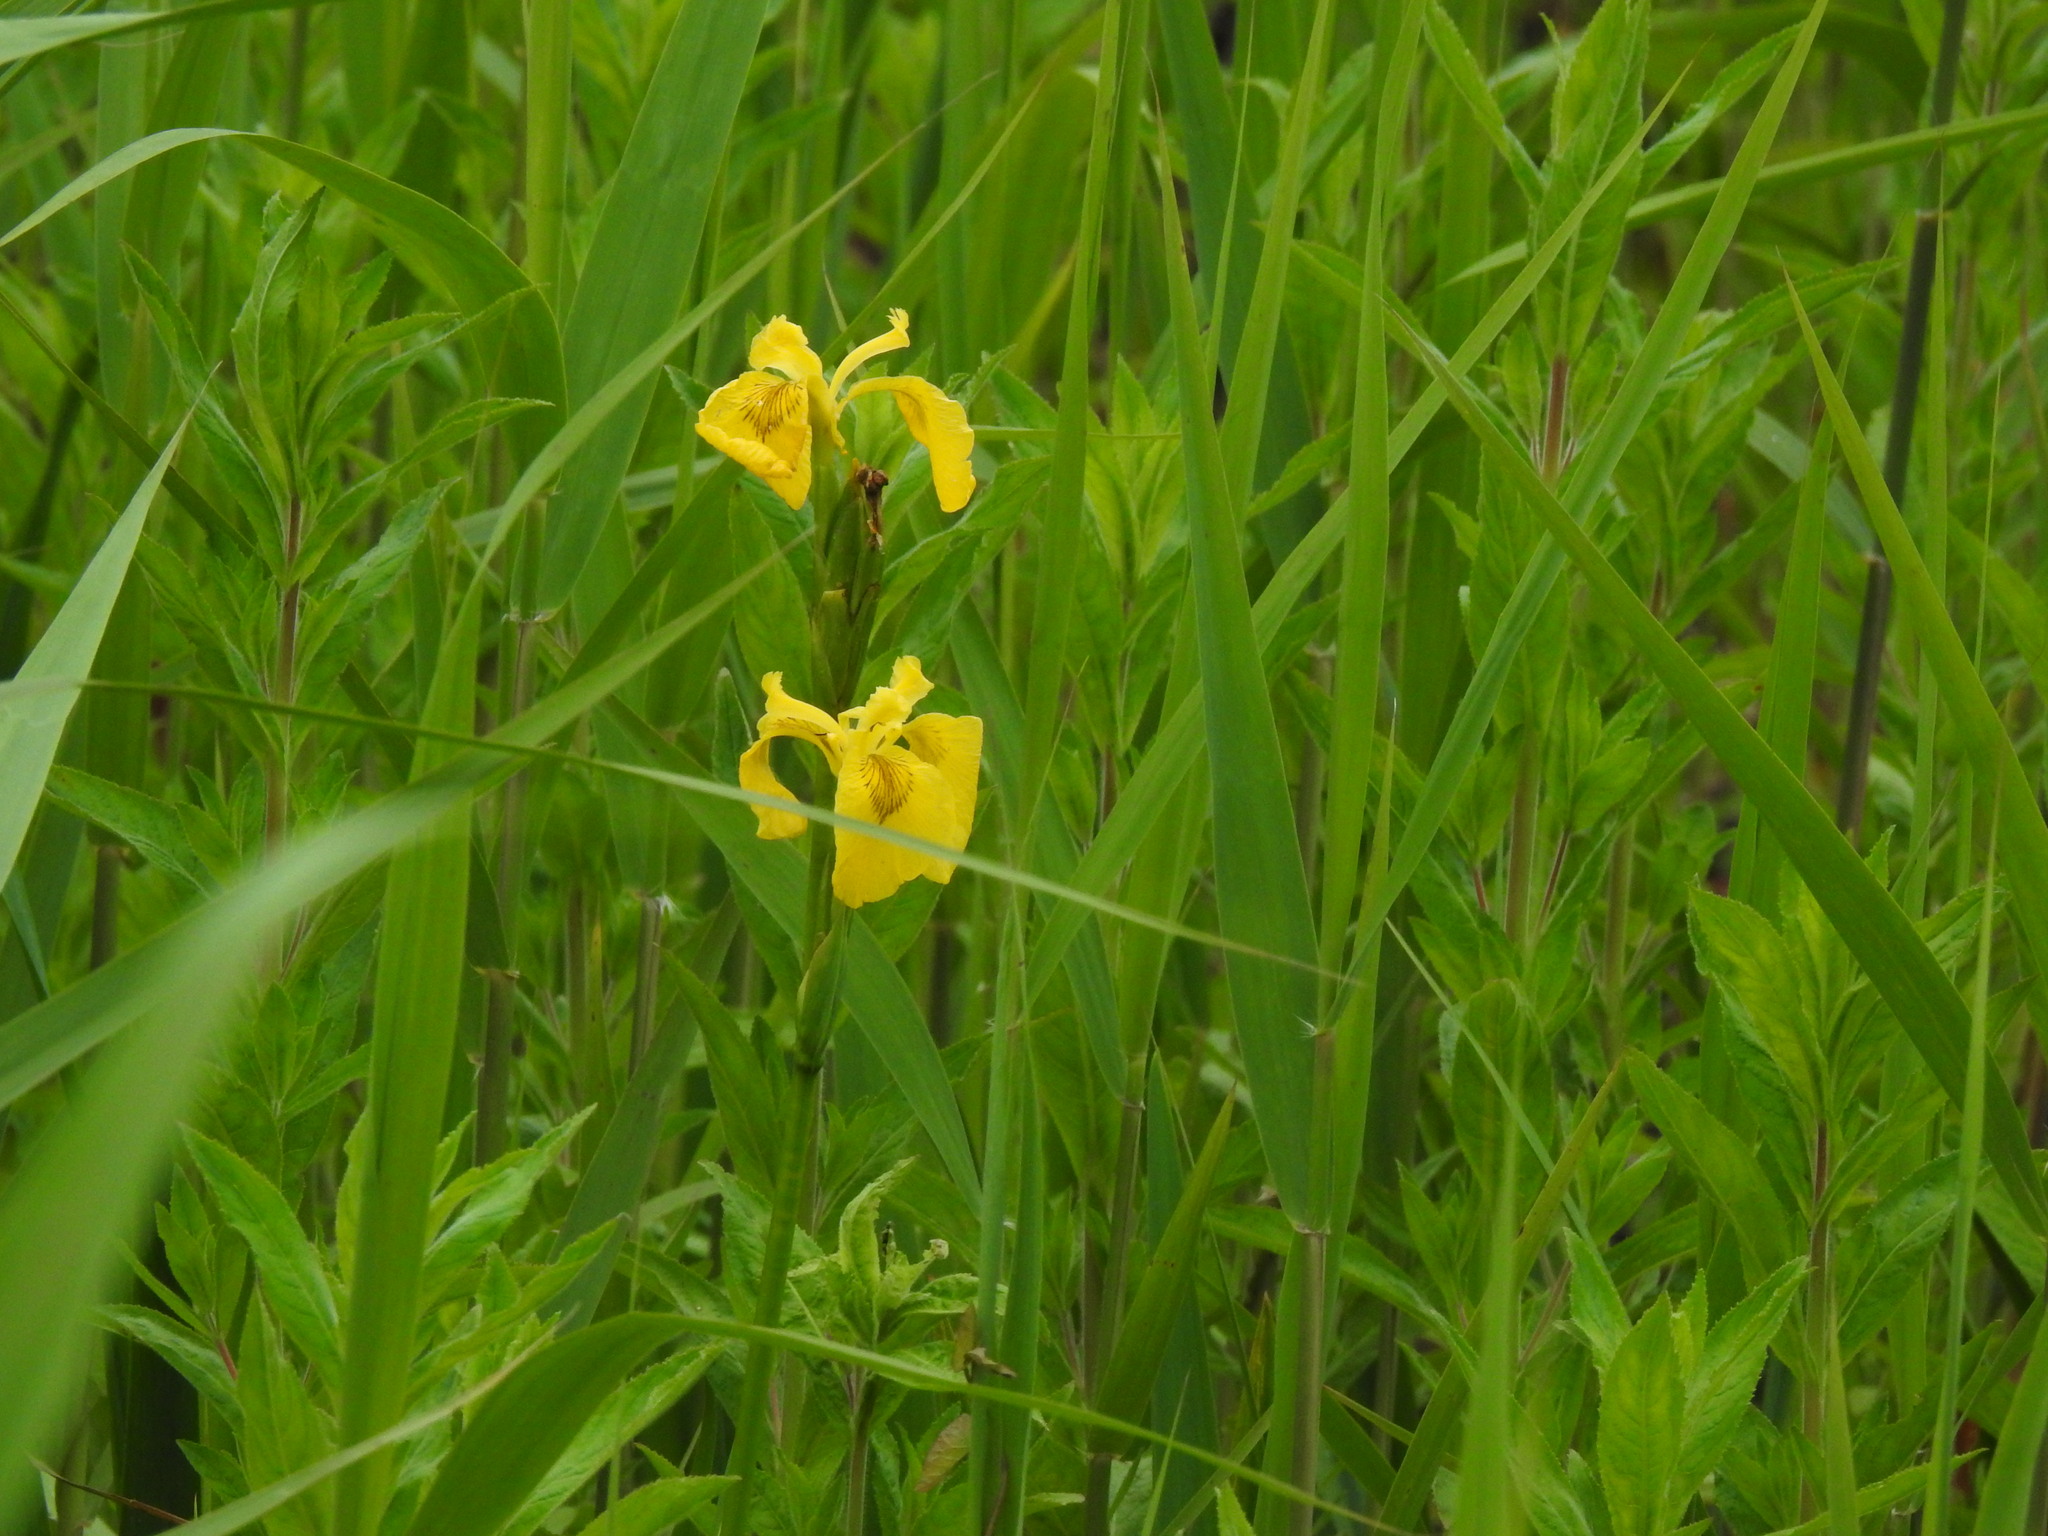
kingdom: Plantae
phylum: Tracheophyta
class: Liliopsida
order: Asparagales
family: Iridaceae
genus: Iris
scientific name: Iris pseudacorus
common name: Yellow flag
